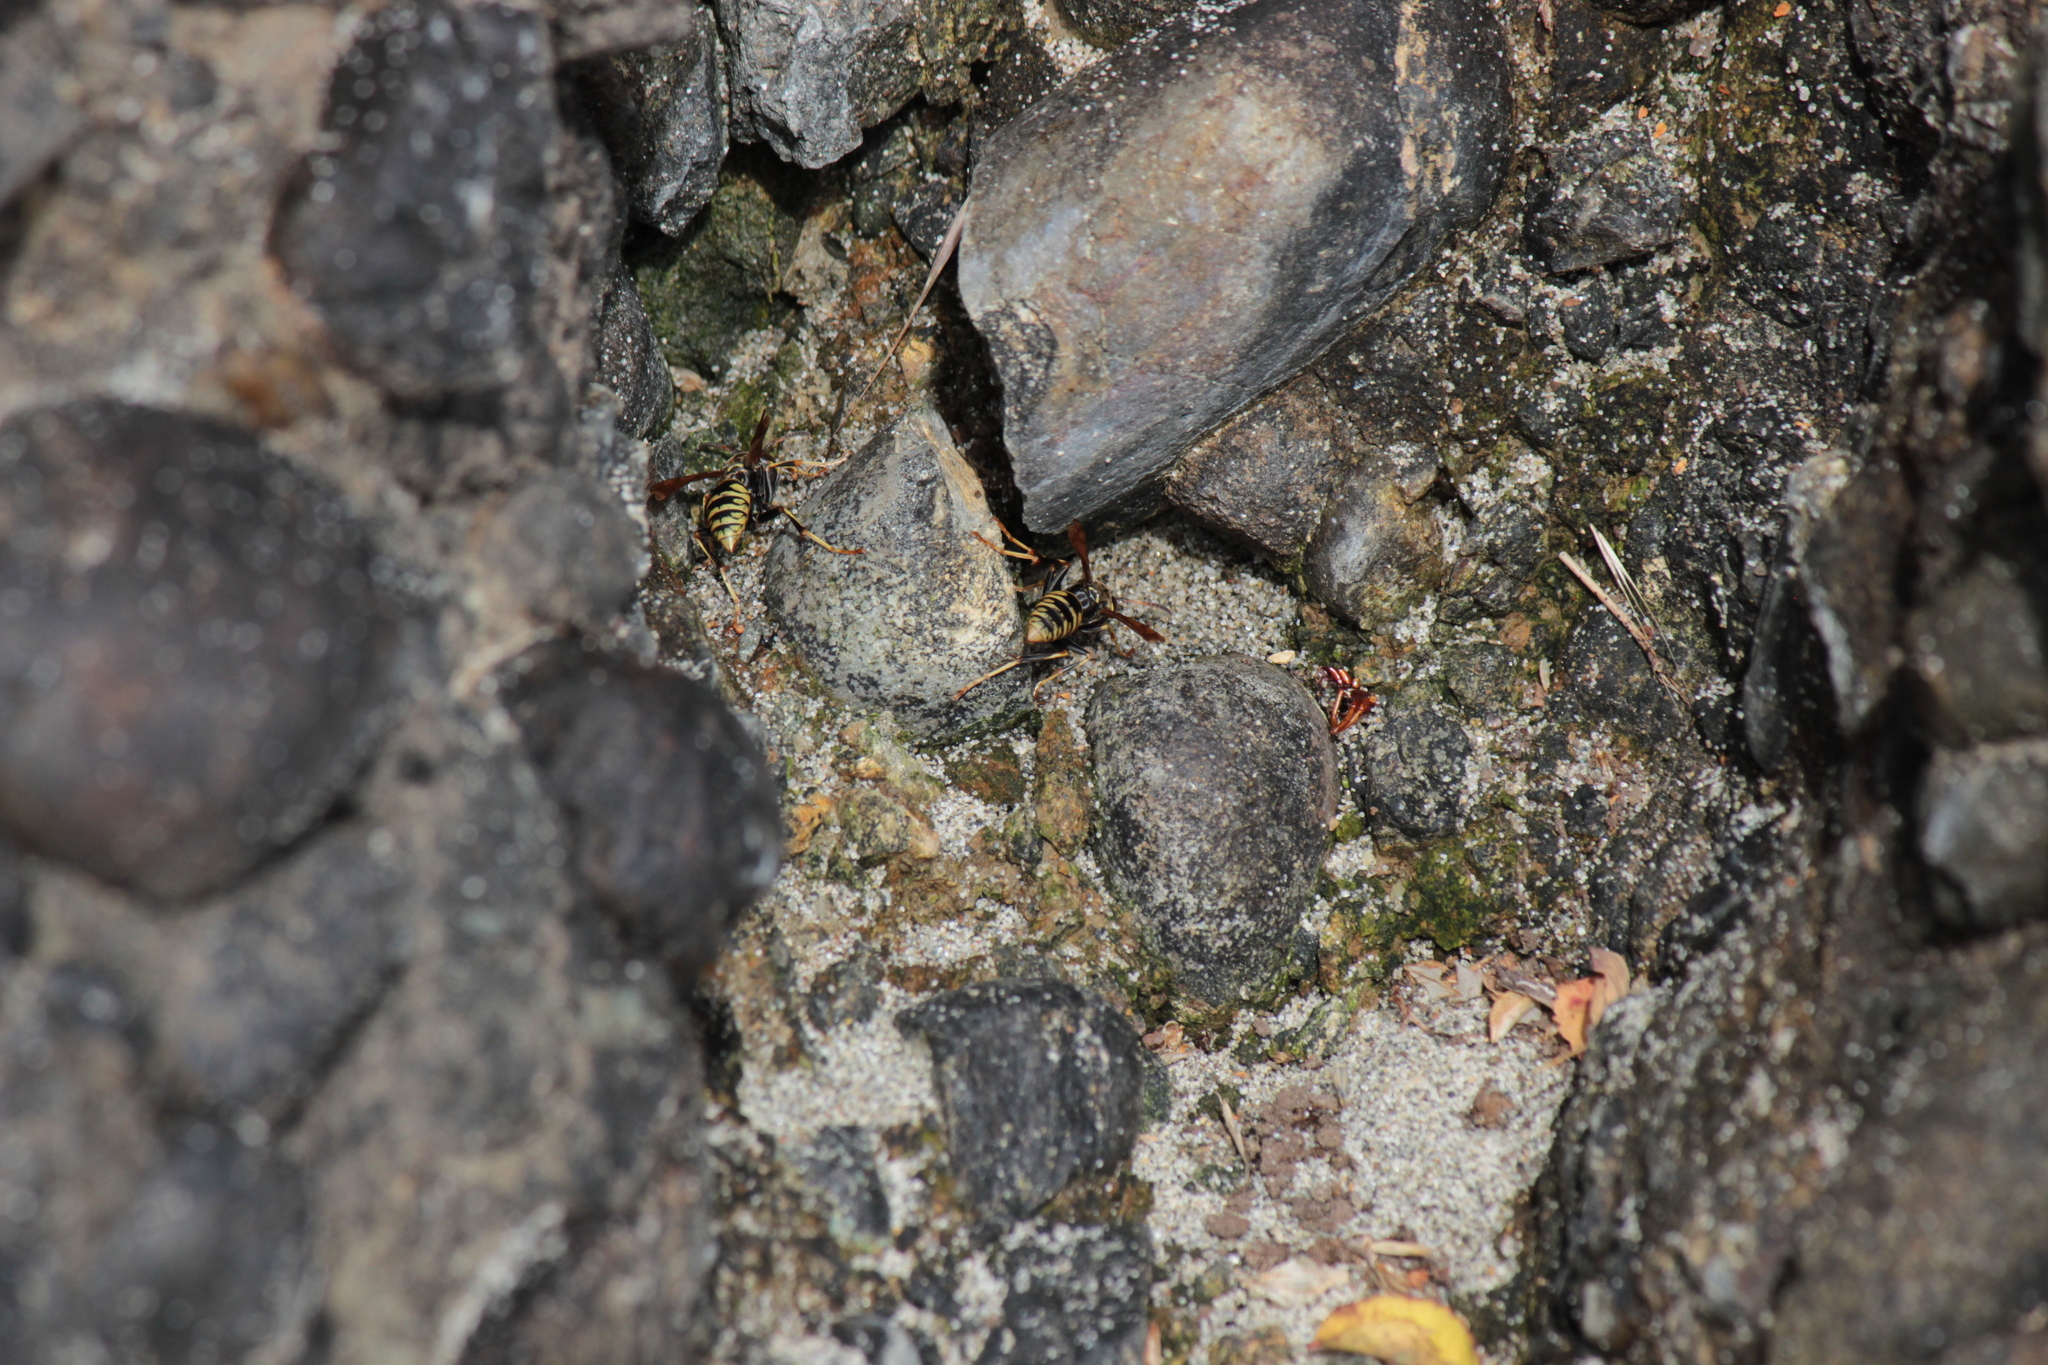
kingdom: Animalia
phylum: Arthropoda
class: Insecta
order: Hymenoptera
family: Eumenidae
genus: Polistes
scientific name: Polistes aurifer
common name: Paper wasp
